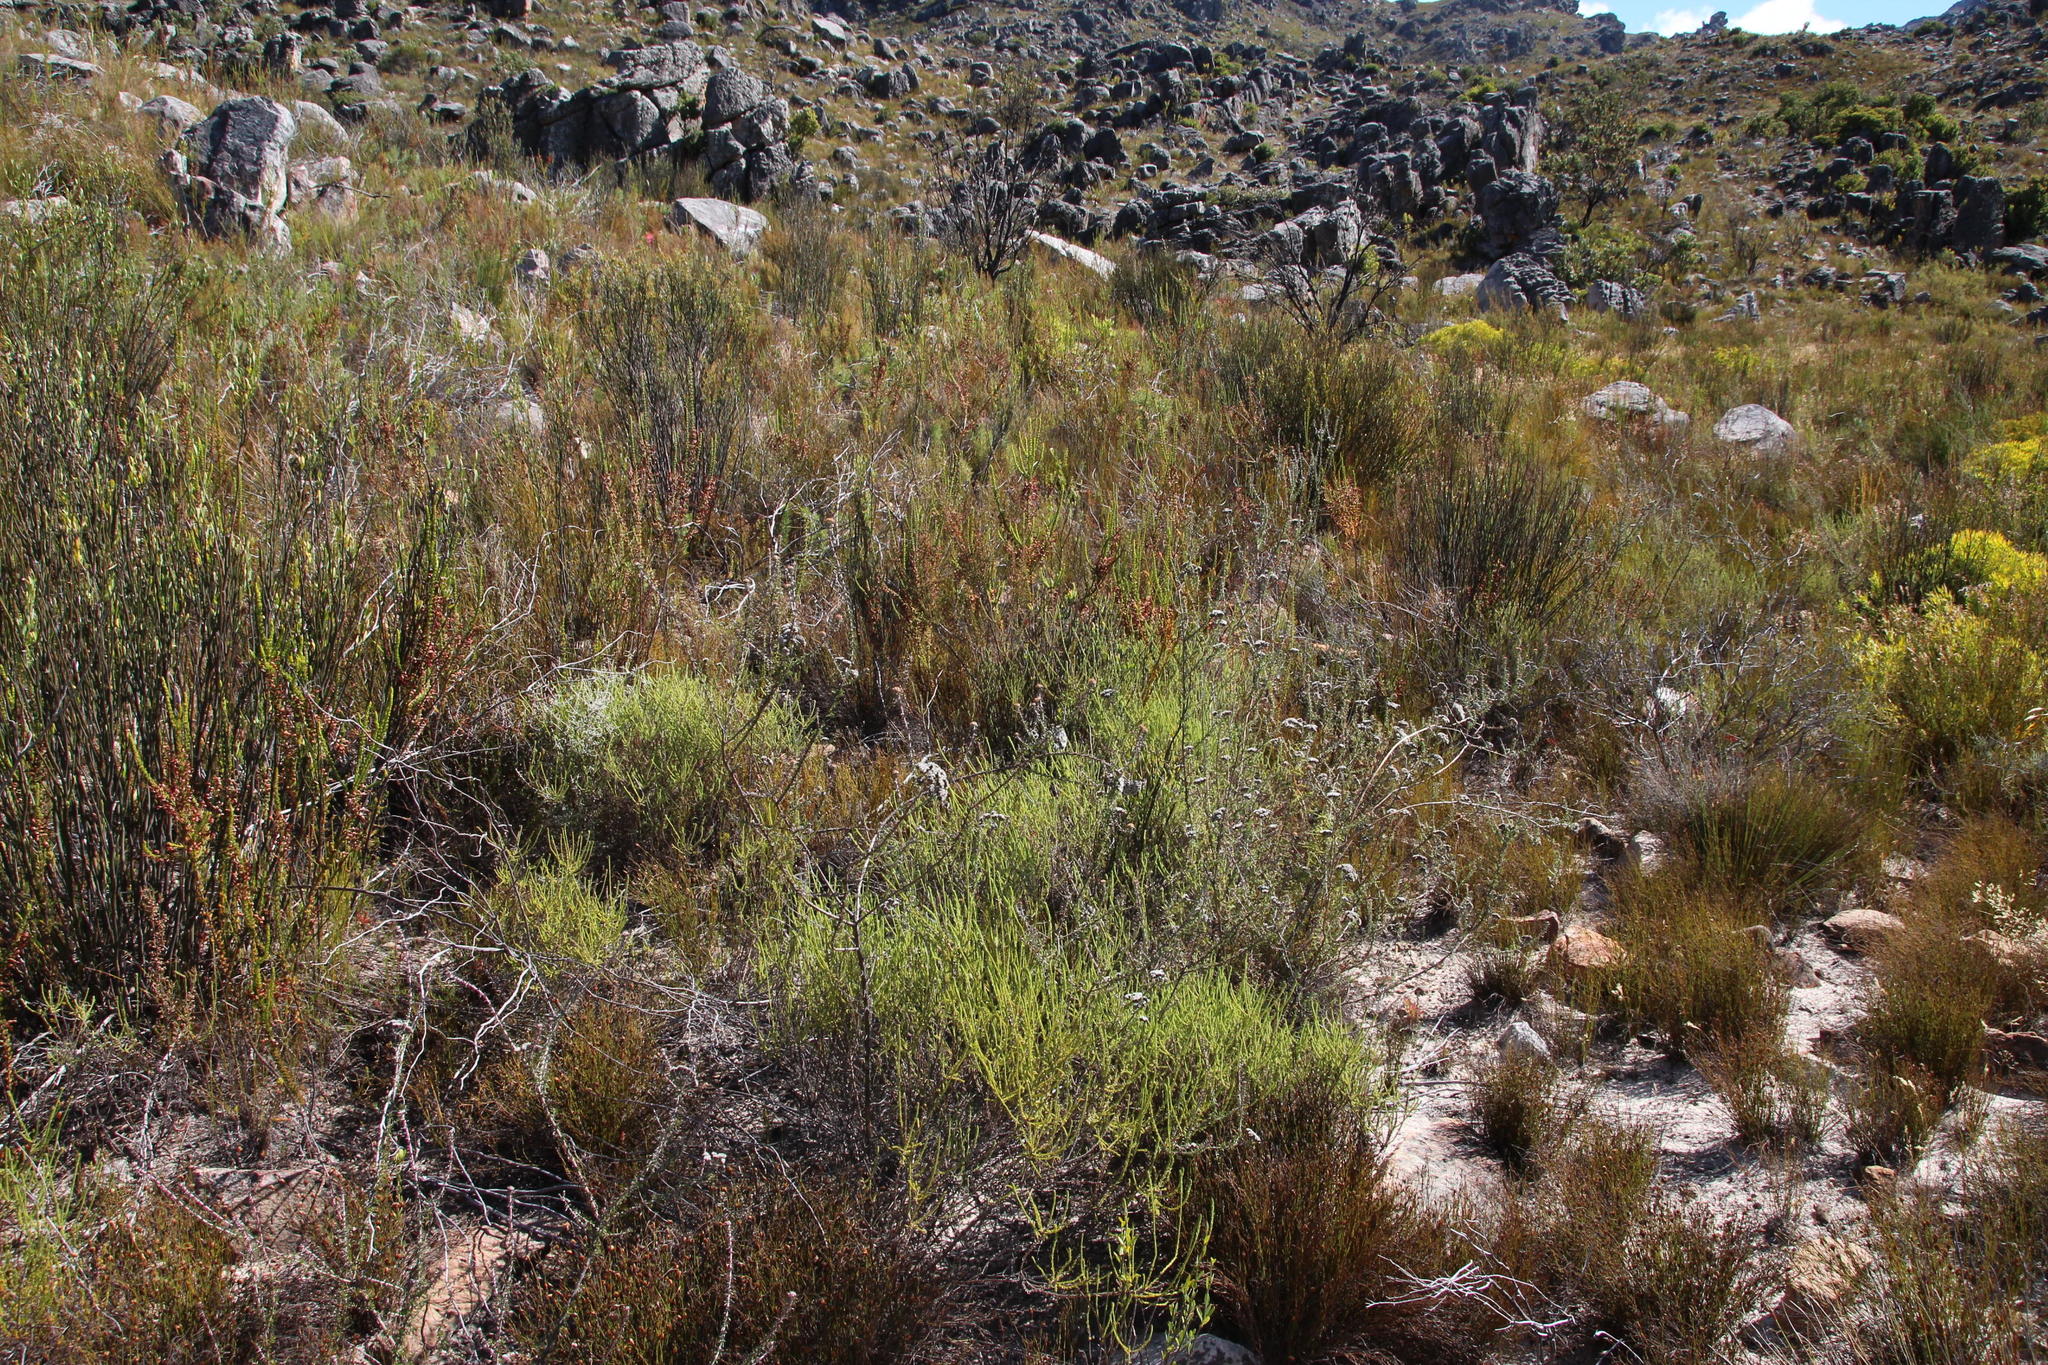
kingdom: Plantae
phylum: Tracheophyta
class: Magnoliopsida
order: Ericales
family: Ericaceae
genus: Erica
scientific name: Erica plukenetii
